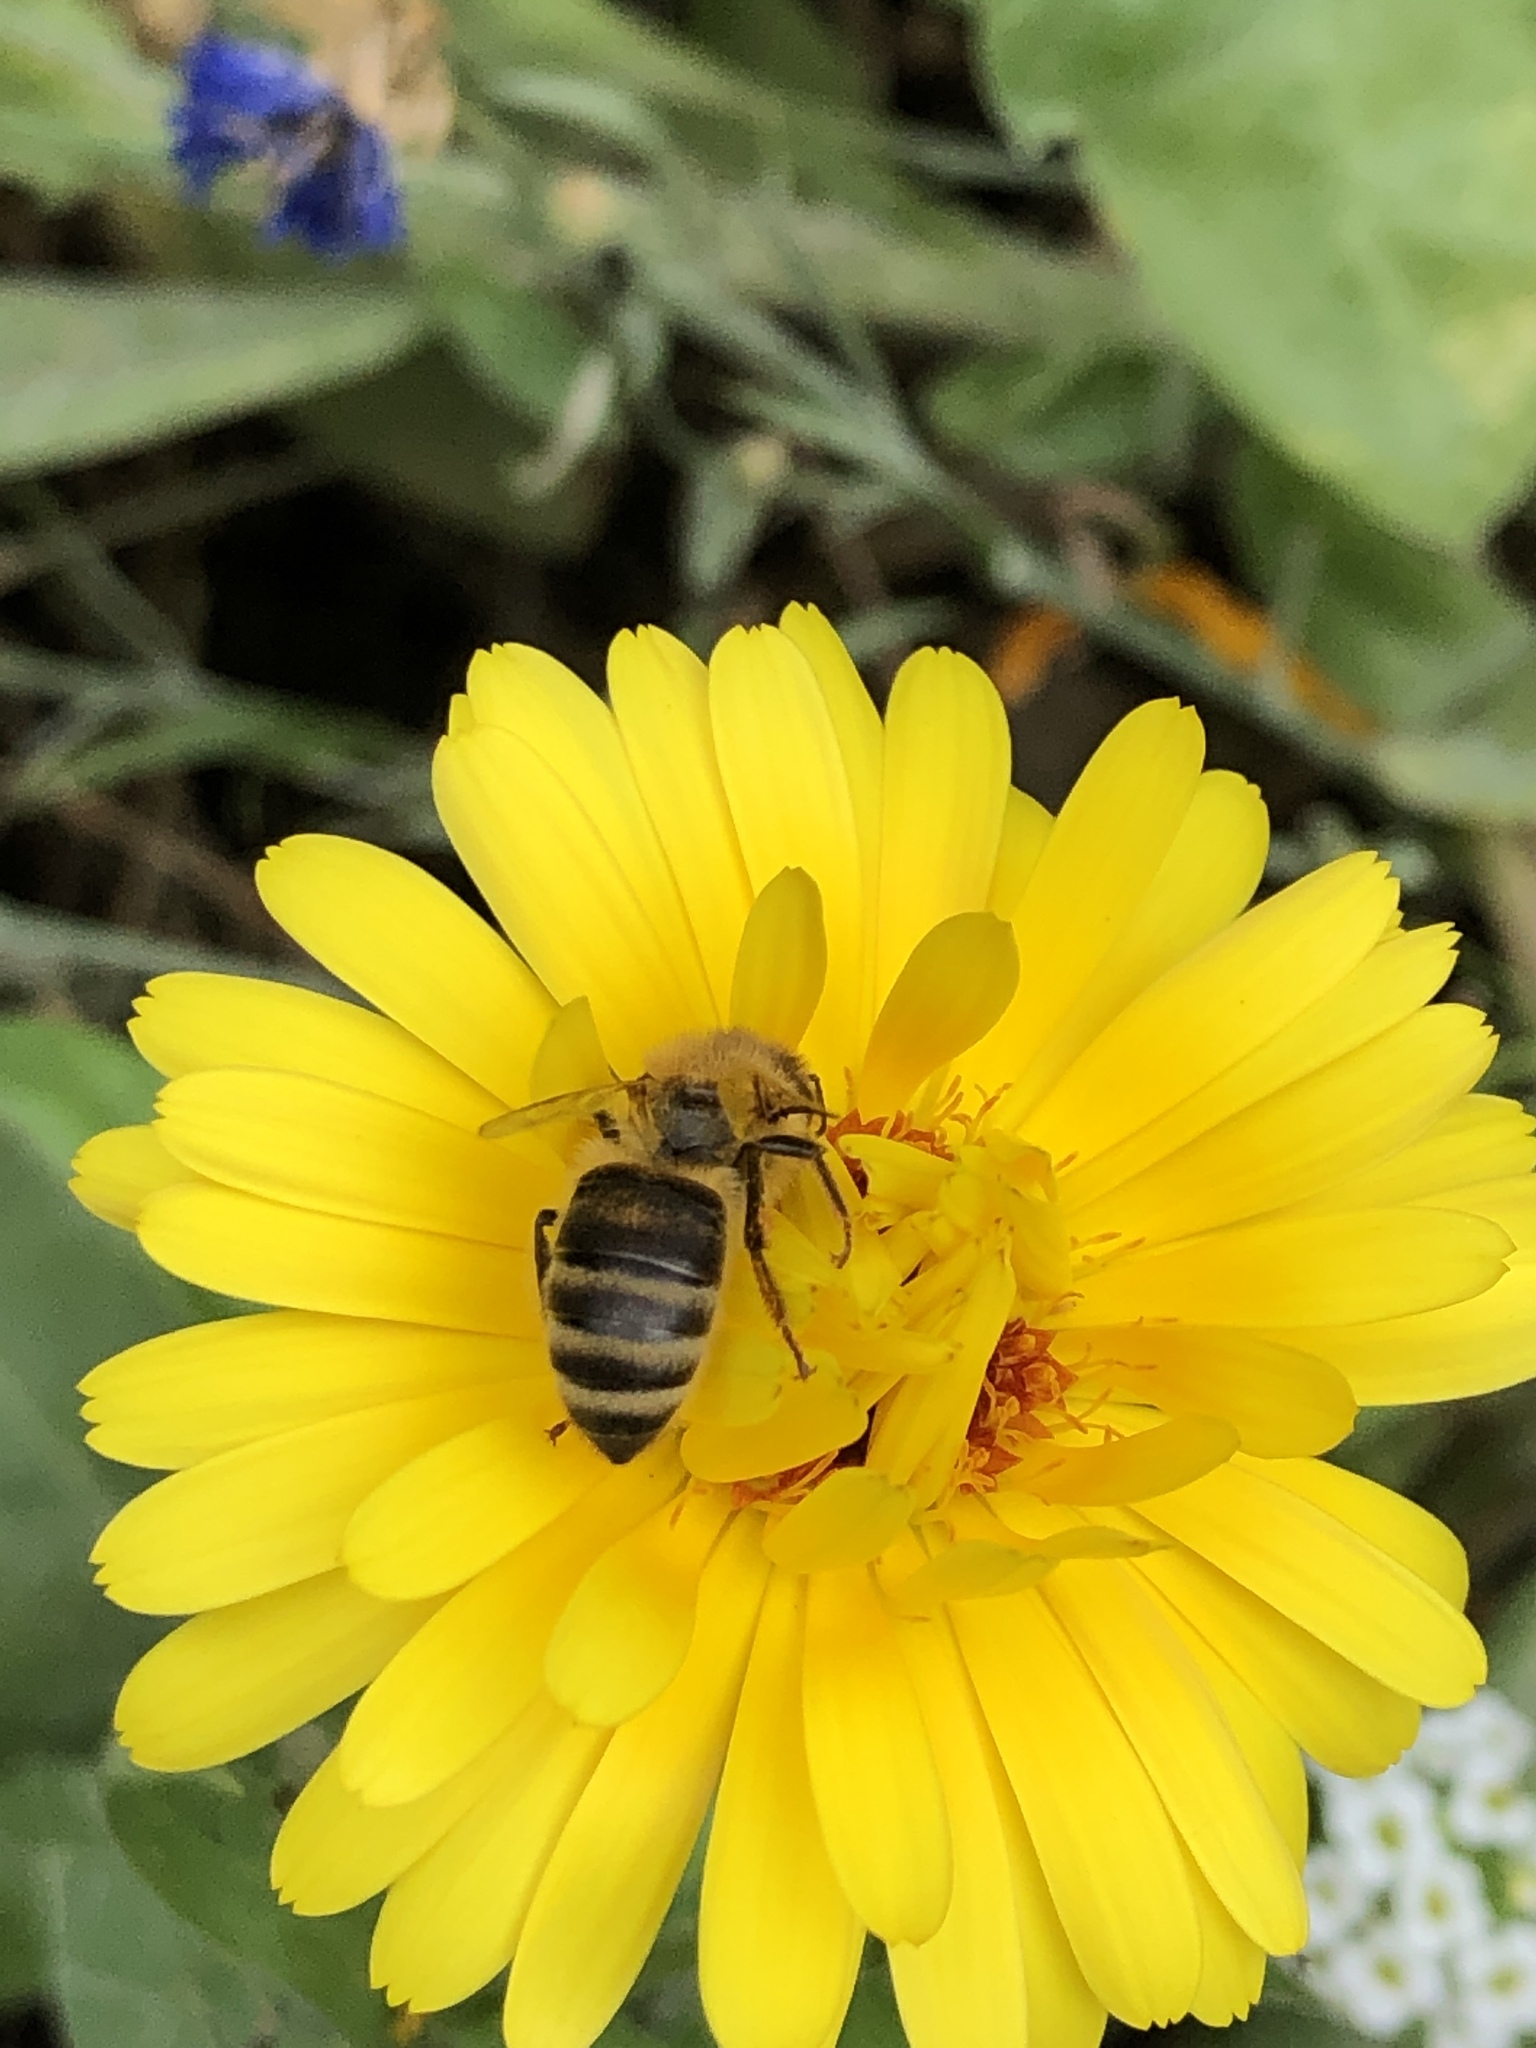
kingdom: Animalia
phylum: Arthropoda
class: Insecta
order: Hymenoptera
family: Apidae
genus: Apis
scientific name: Apis mellifera
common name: Honey bee
